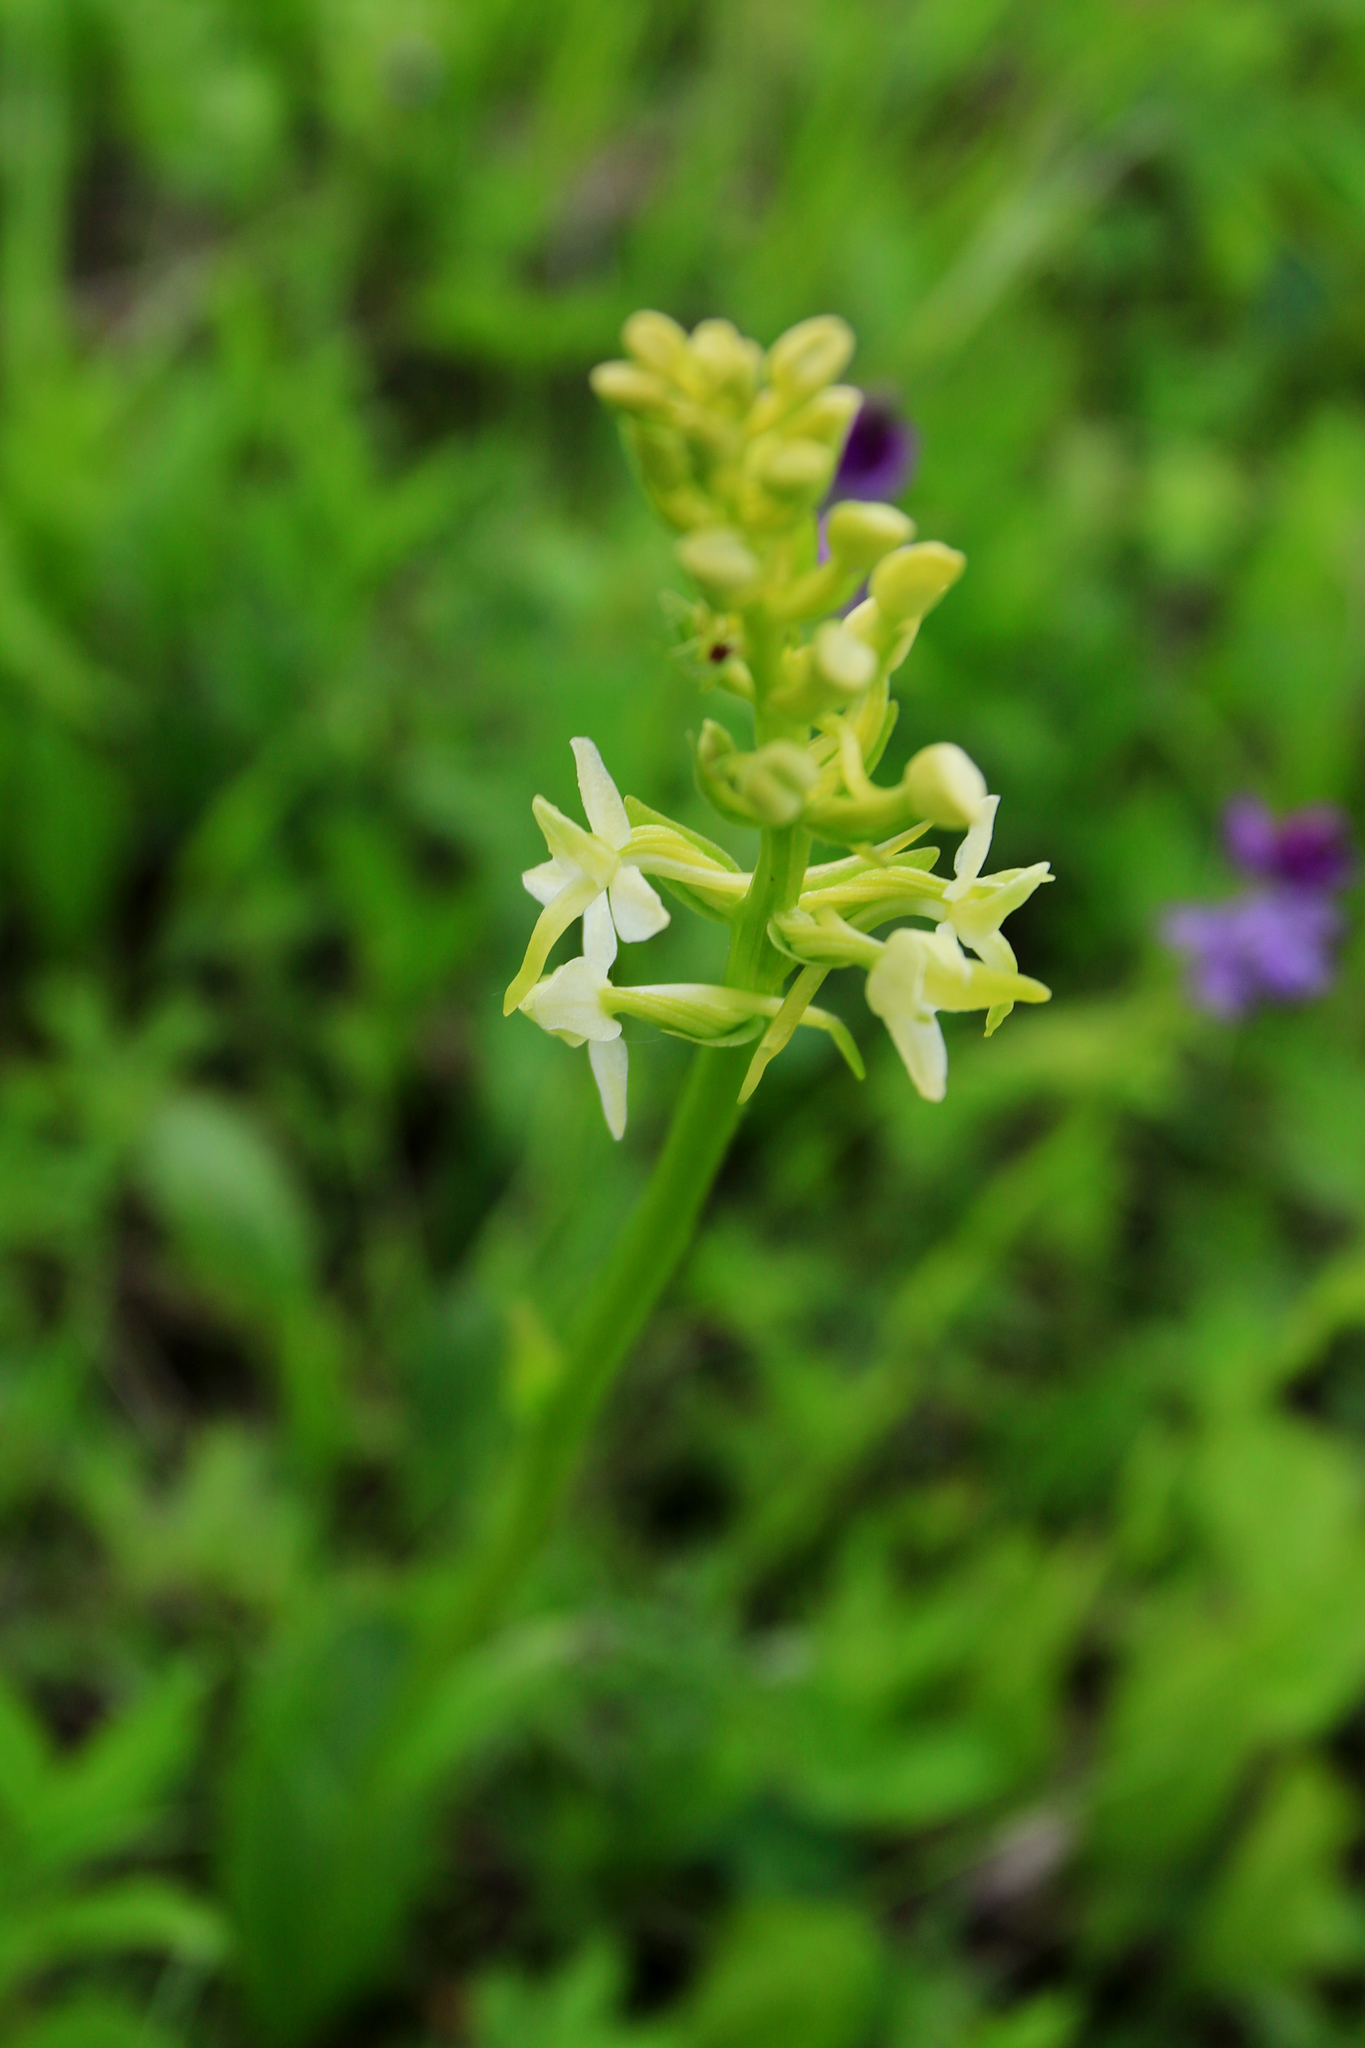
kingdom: Plantae
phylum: Tracheophyta
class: Liliopsida
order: Asparagales
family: Orchidaceae
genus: Platanthera
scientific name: Platanthera bifolia
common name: Lesser butterfly-orchid
